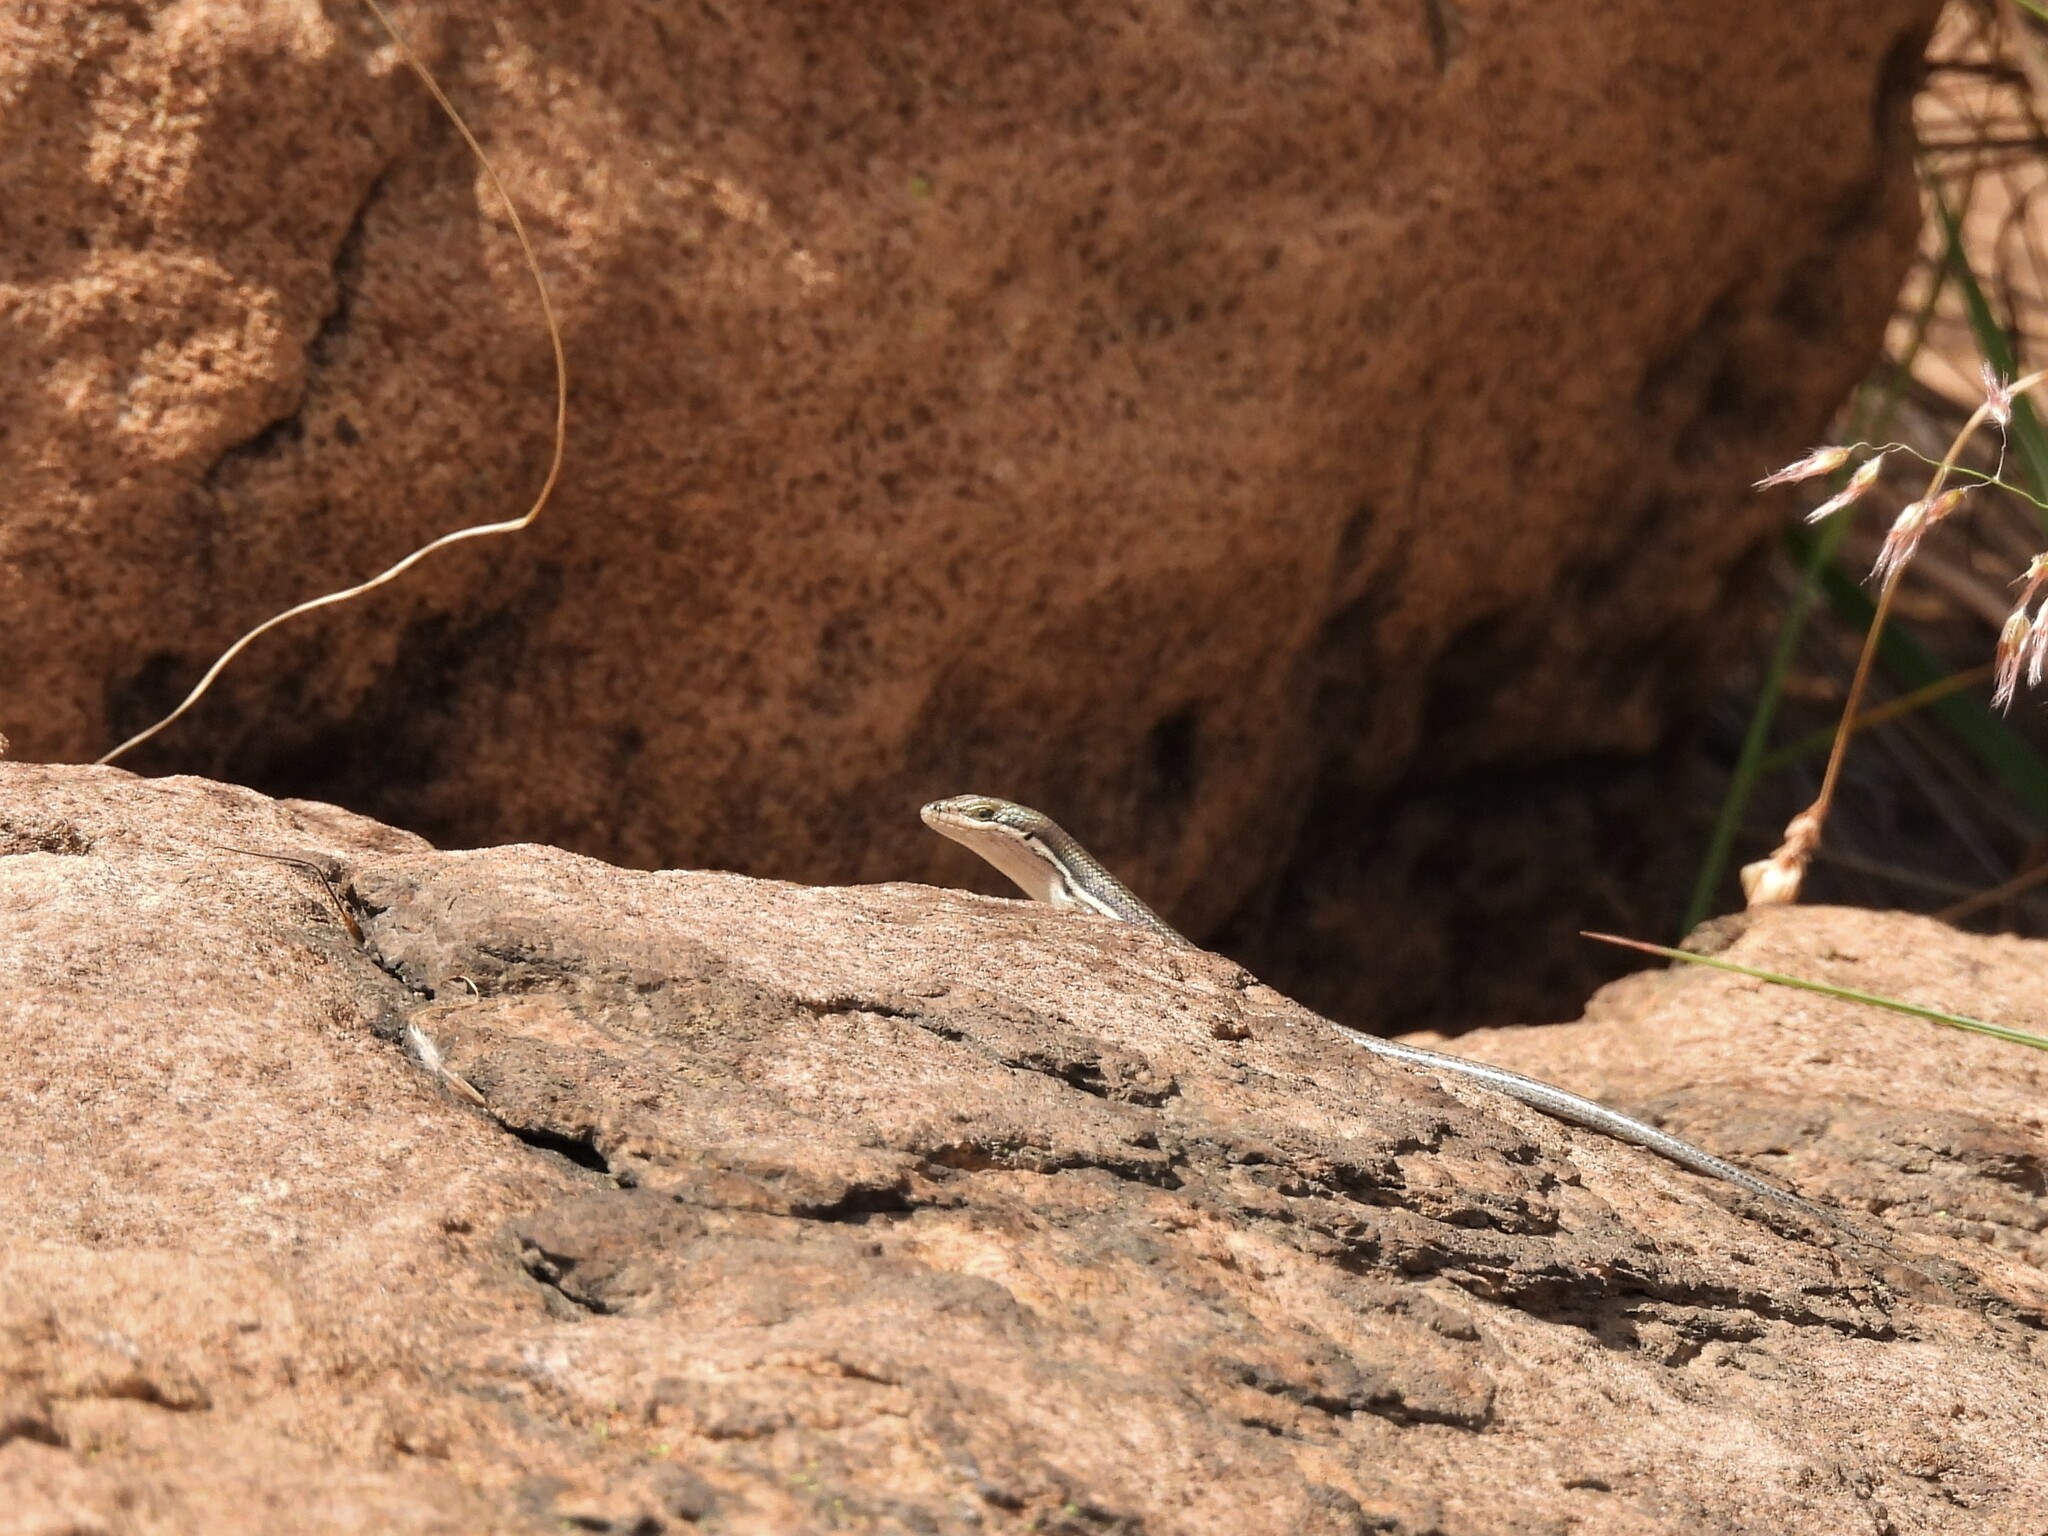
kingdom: Animalia
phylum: Chordata
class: Squamata
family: Scincidae
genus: Trachylepis
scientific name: Trachylepis varia
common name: Eastern variable skink
